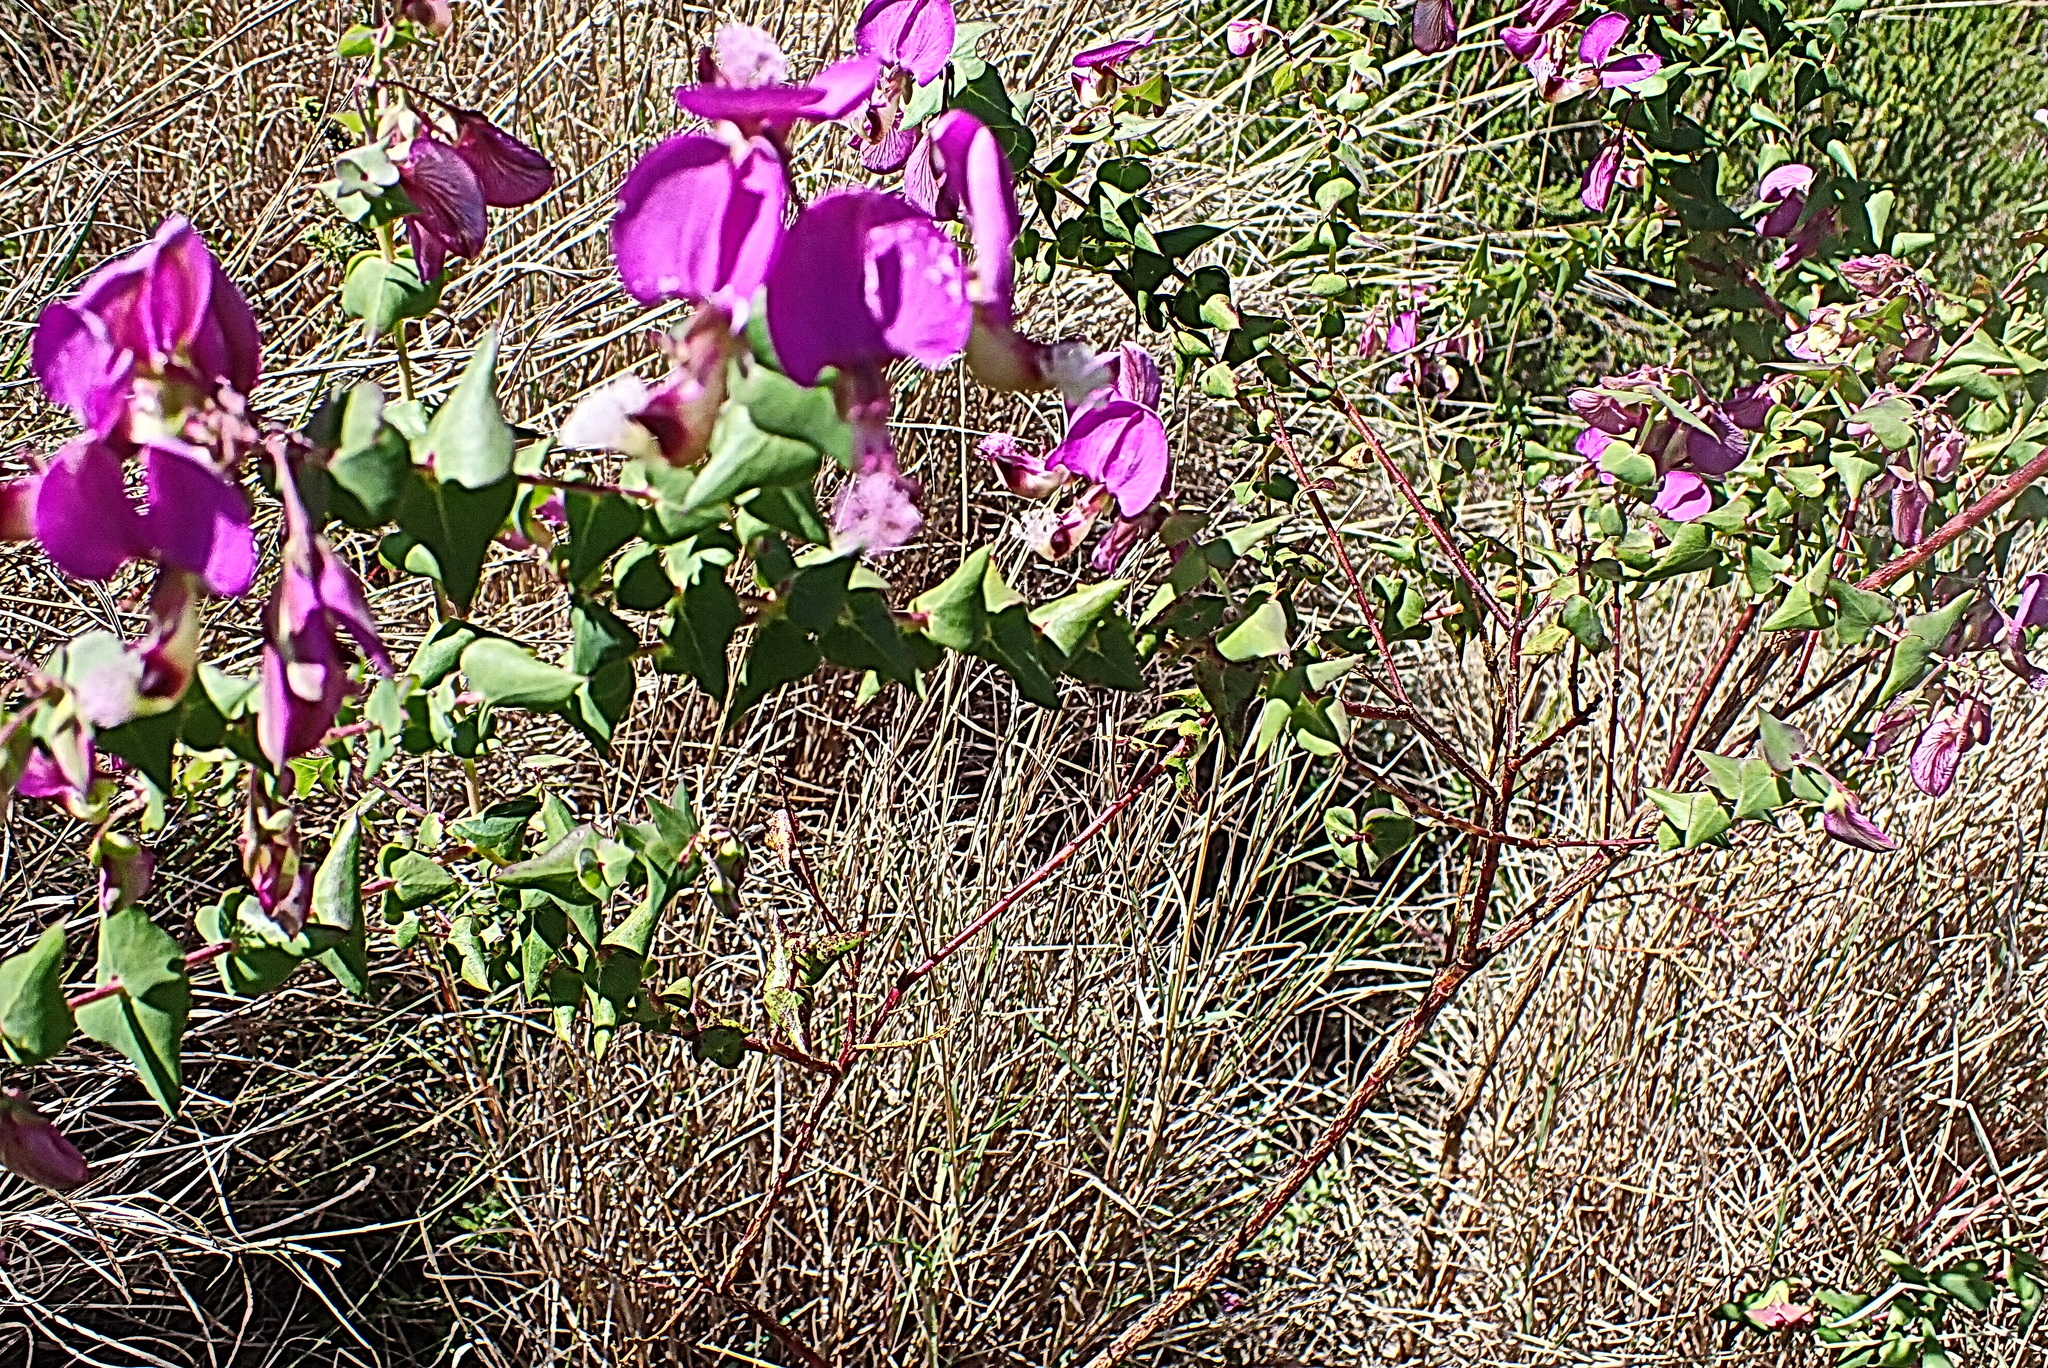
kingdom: Plantae
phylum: Tracheophyta
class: Magnoliopsida
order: Fabales
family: Polygalaceae
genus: Polygala
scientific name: Polygala fruticosa
